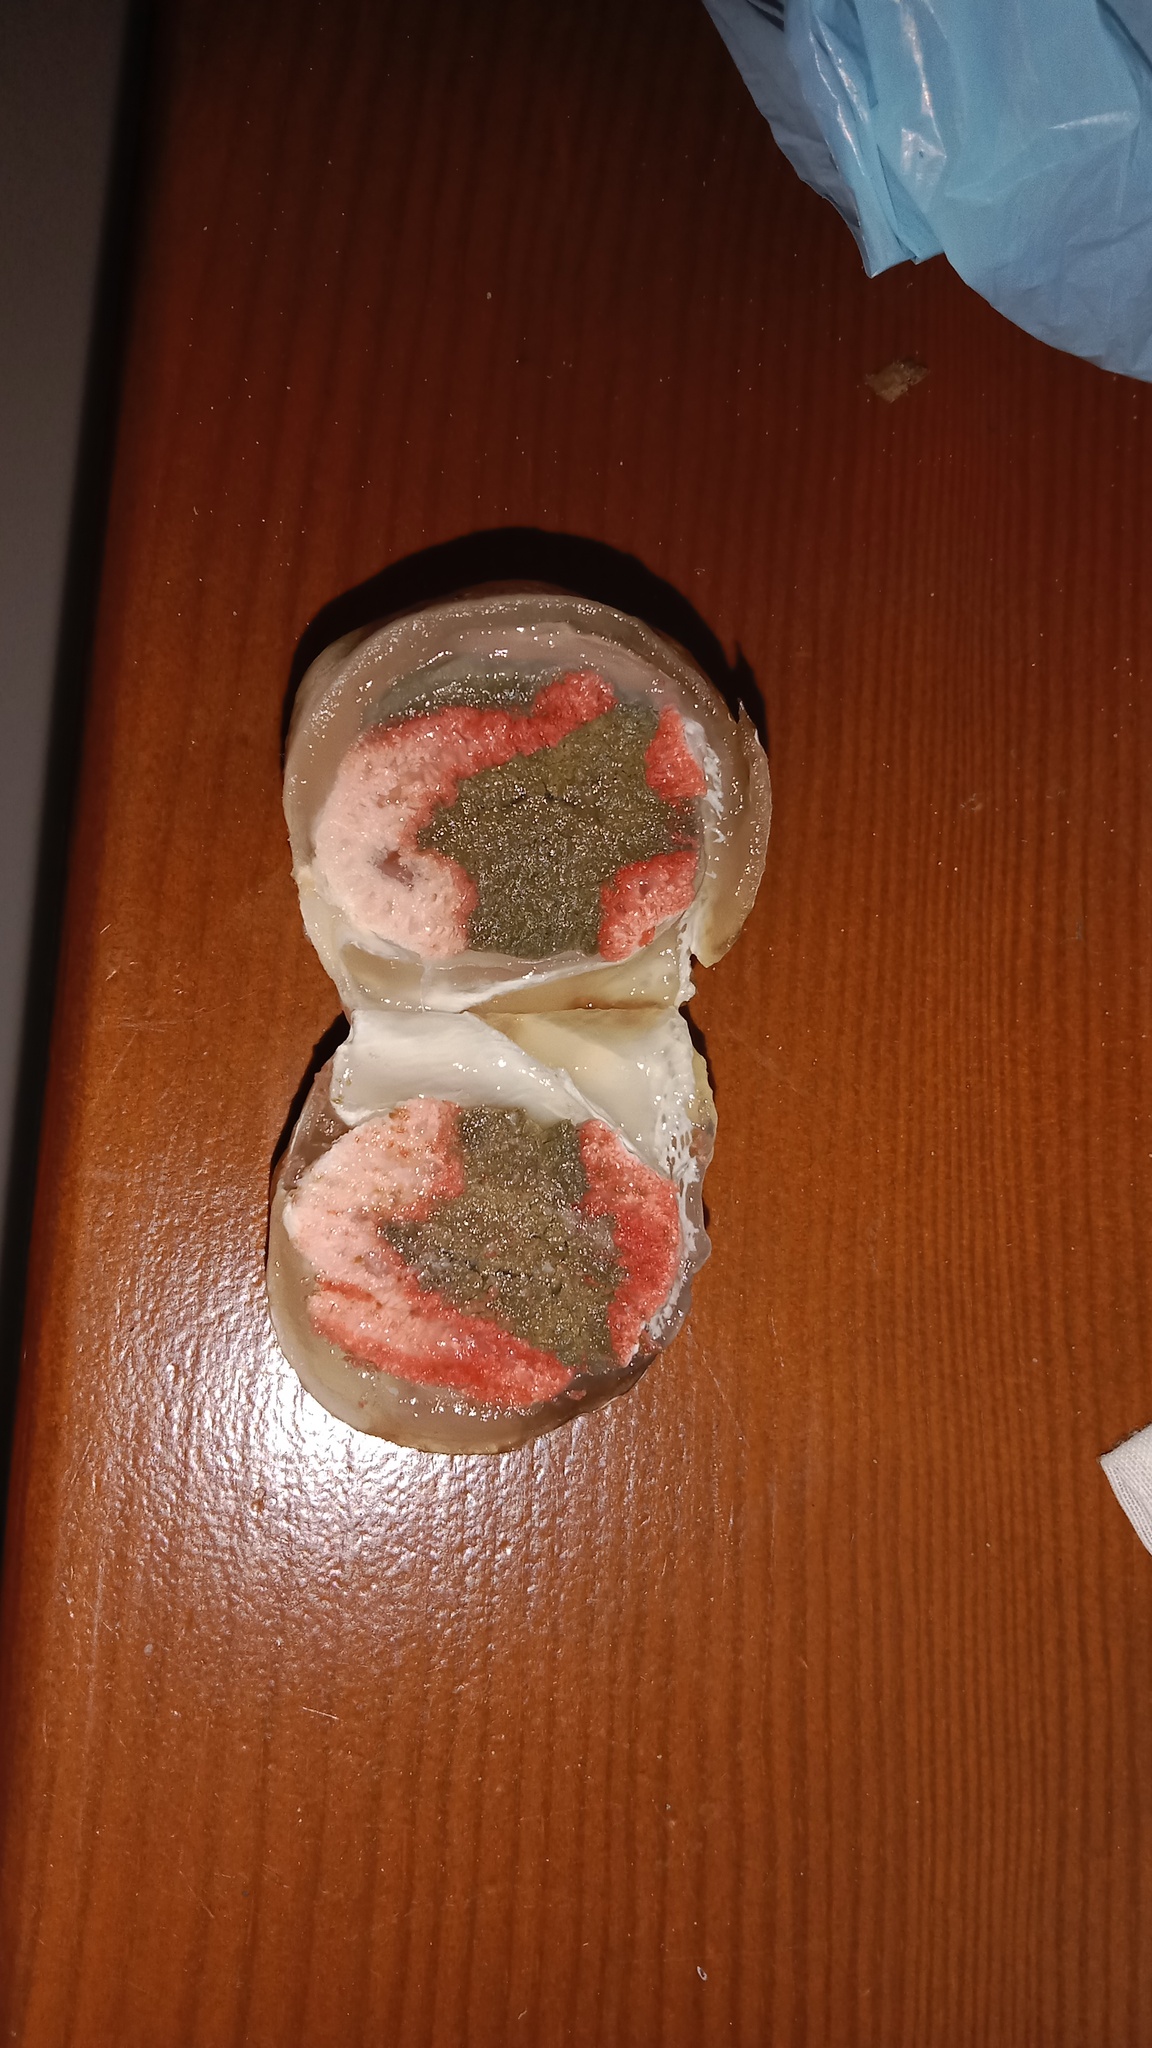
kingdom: Fungi
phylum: Basidiomycota
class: Agaricomycetes
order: Phallales
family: Phallaceae
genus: Clathrus
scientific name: Clathrus archeri
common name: Devil's fingers
